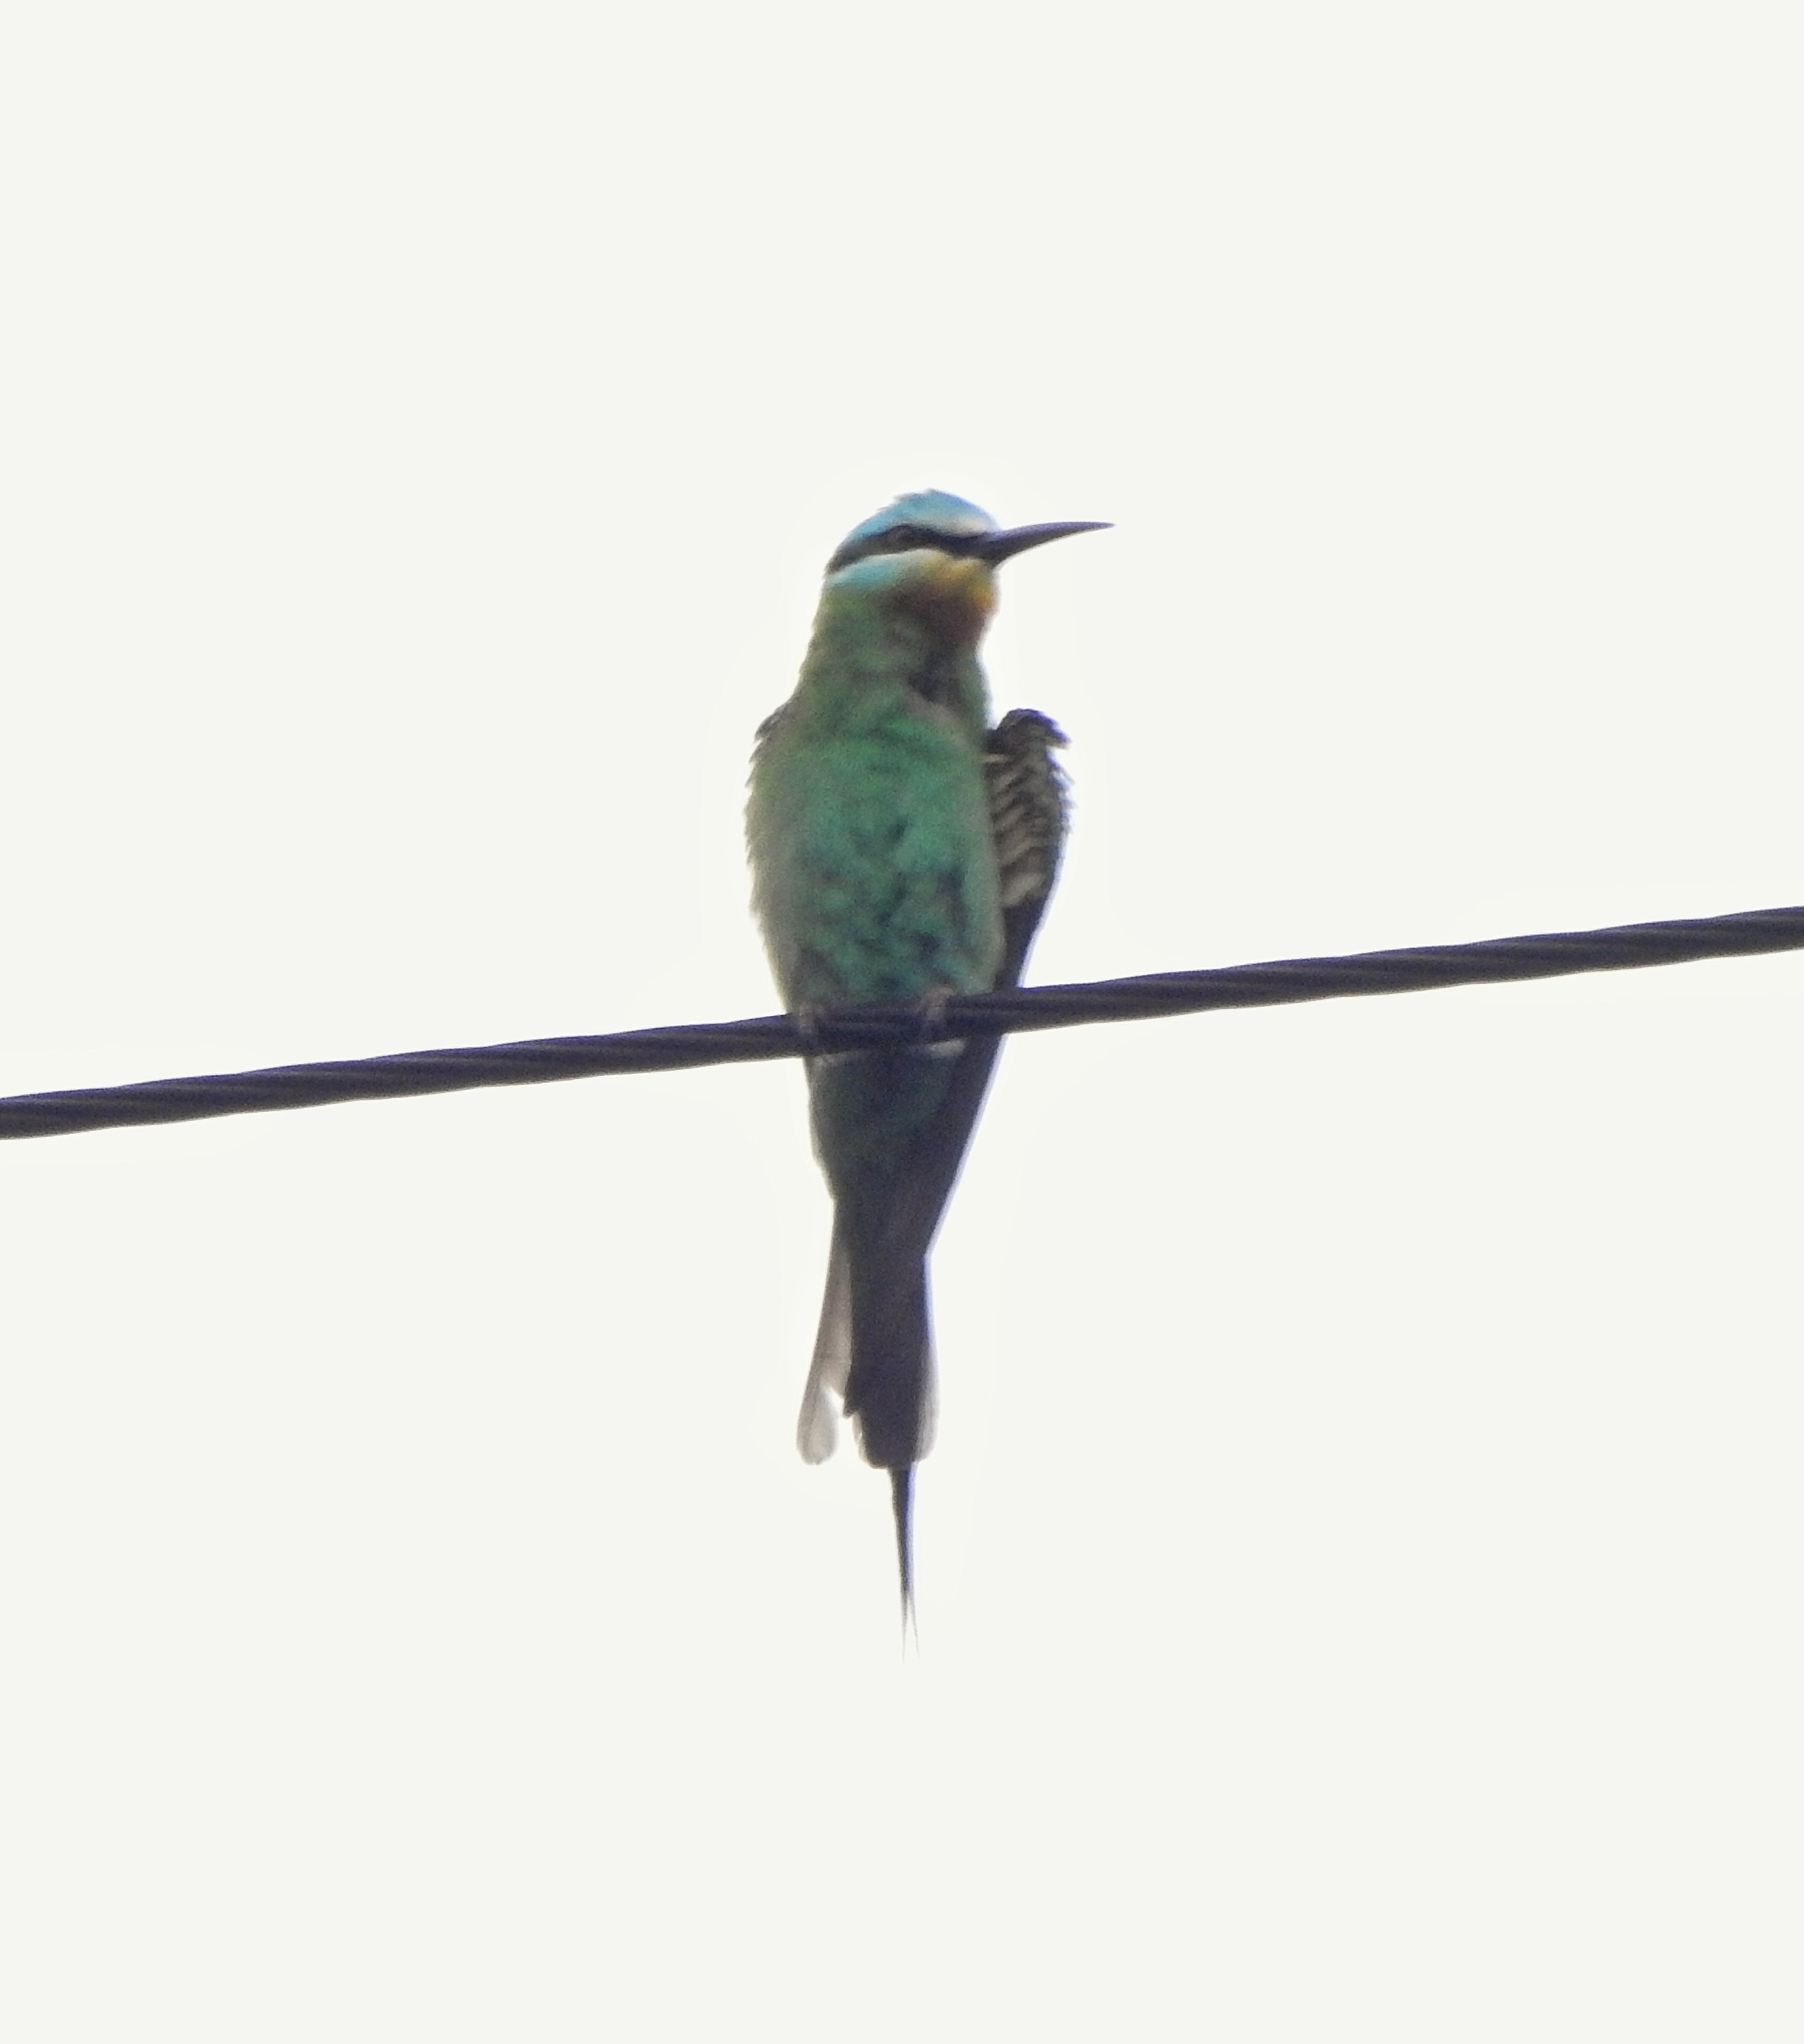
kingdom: Animalia
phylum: Chordata
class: Aves
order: Coraciiformes
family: Meropidae
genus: Merops
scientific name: Merops persicus
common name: Blue-cheeked bee-eater
